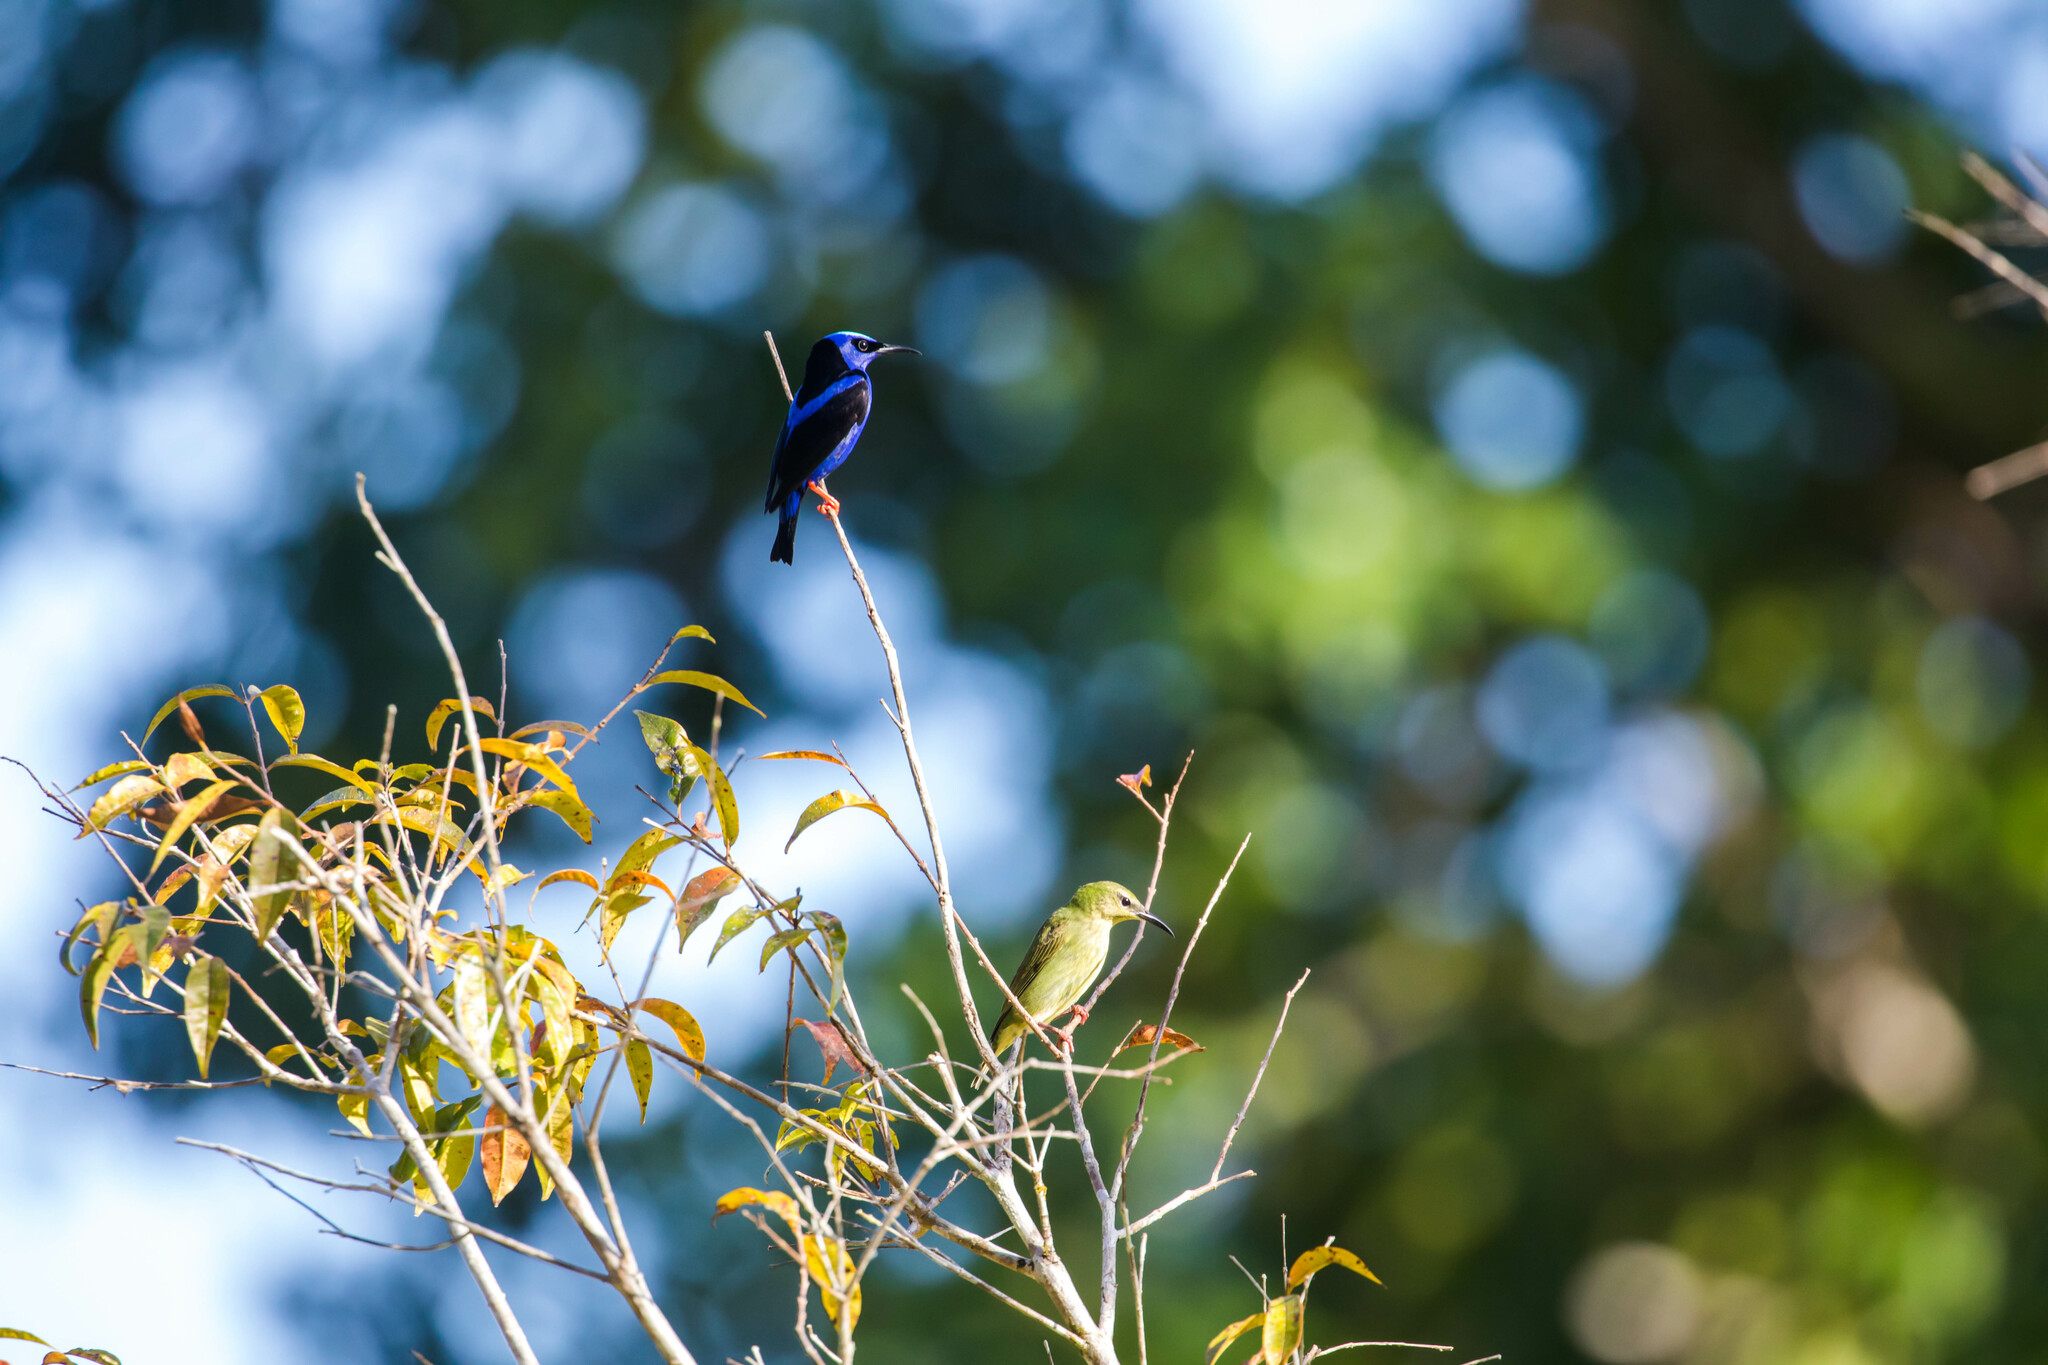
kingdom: Animalia
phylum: Chordata
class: Aves
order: Passeriformes
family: Thraupidae
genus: Cyanerpes
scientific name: Cyanerpes cyaneus
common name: Red-legged honeycreeper
